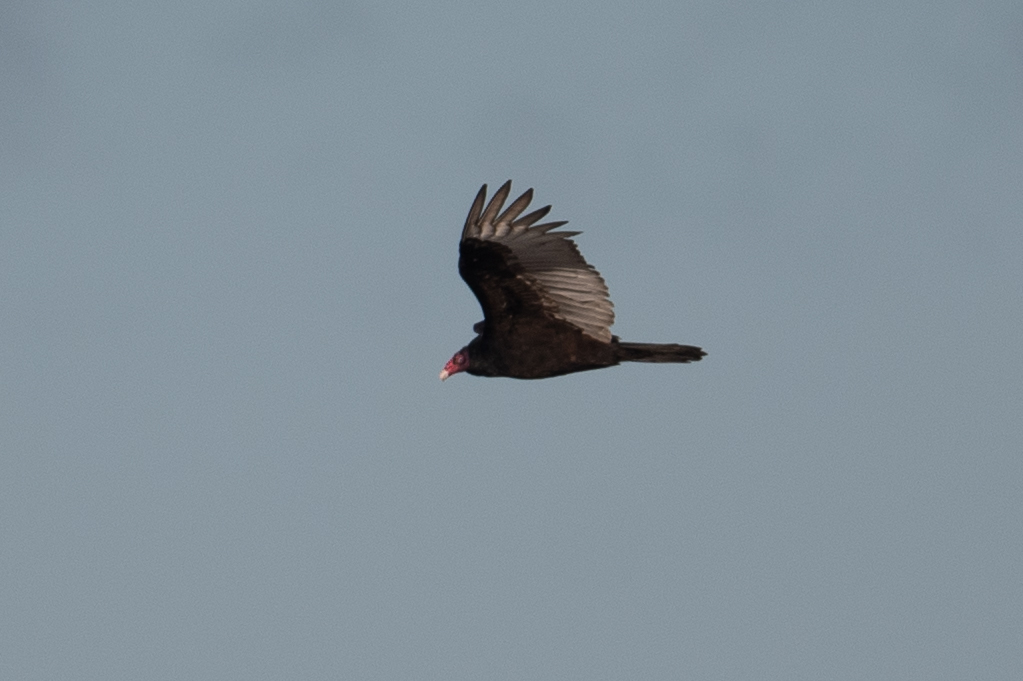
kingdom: Animalia
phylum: Chordata
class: Aves
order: Accipitriformes
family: Cathartidae
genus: Cathartes
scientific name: Cathartes aura
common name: Turkey vulture
